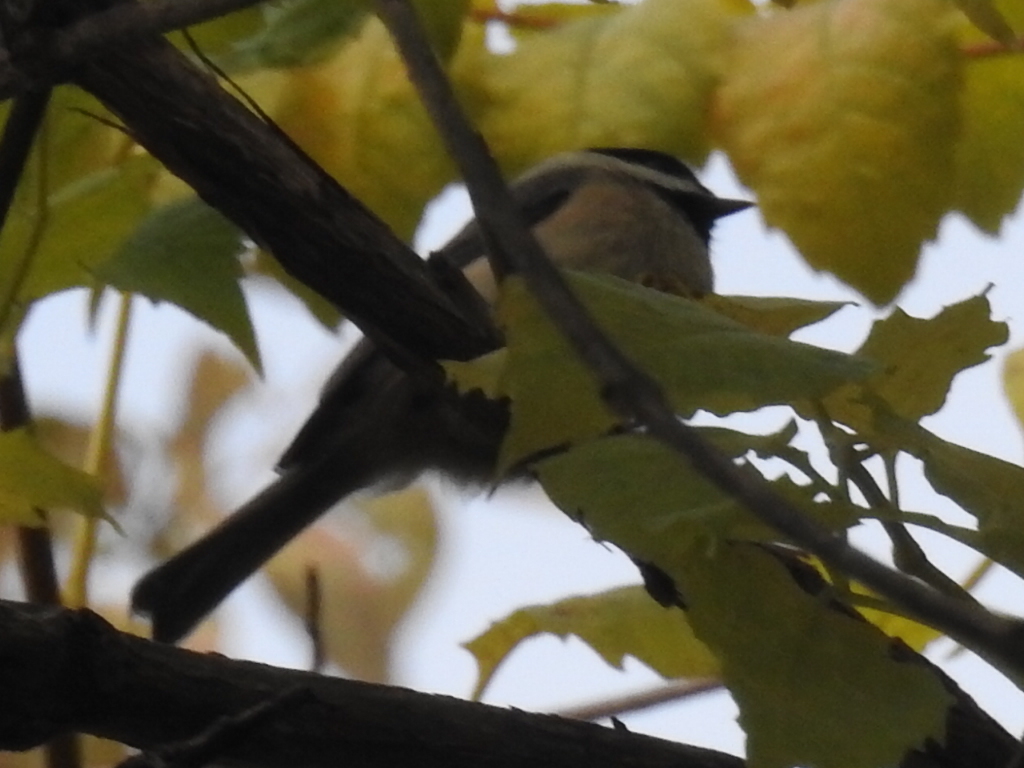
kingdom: Animalia
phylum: Chordata
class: Aves
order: Passeriformes
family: Paridae
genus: Poecile
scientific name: Poecile carolinensis
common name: Carolina chickadee
